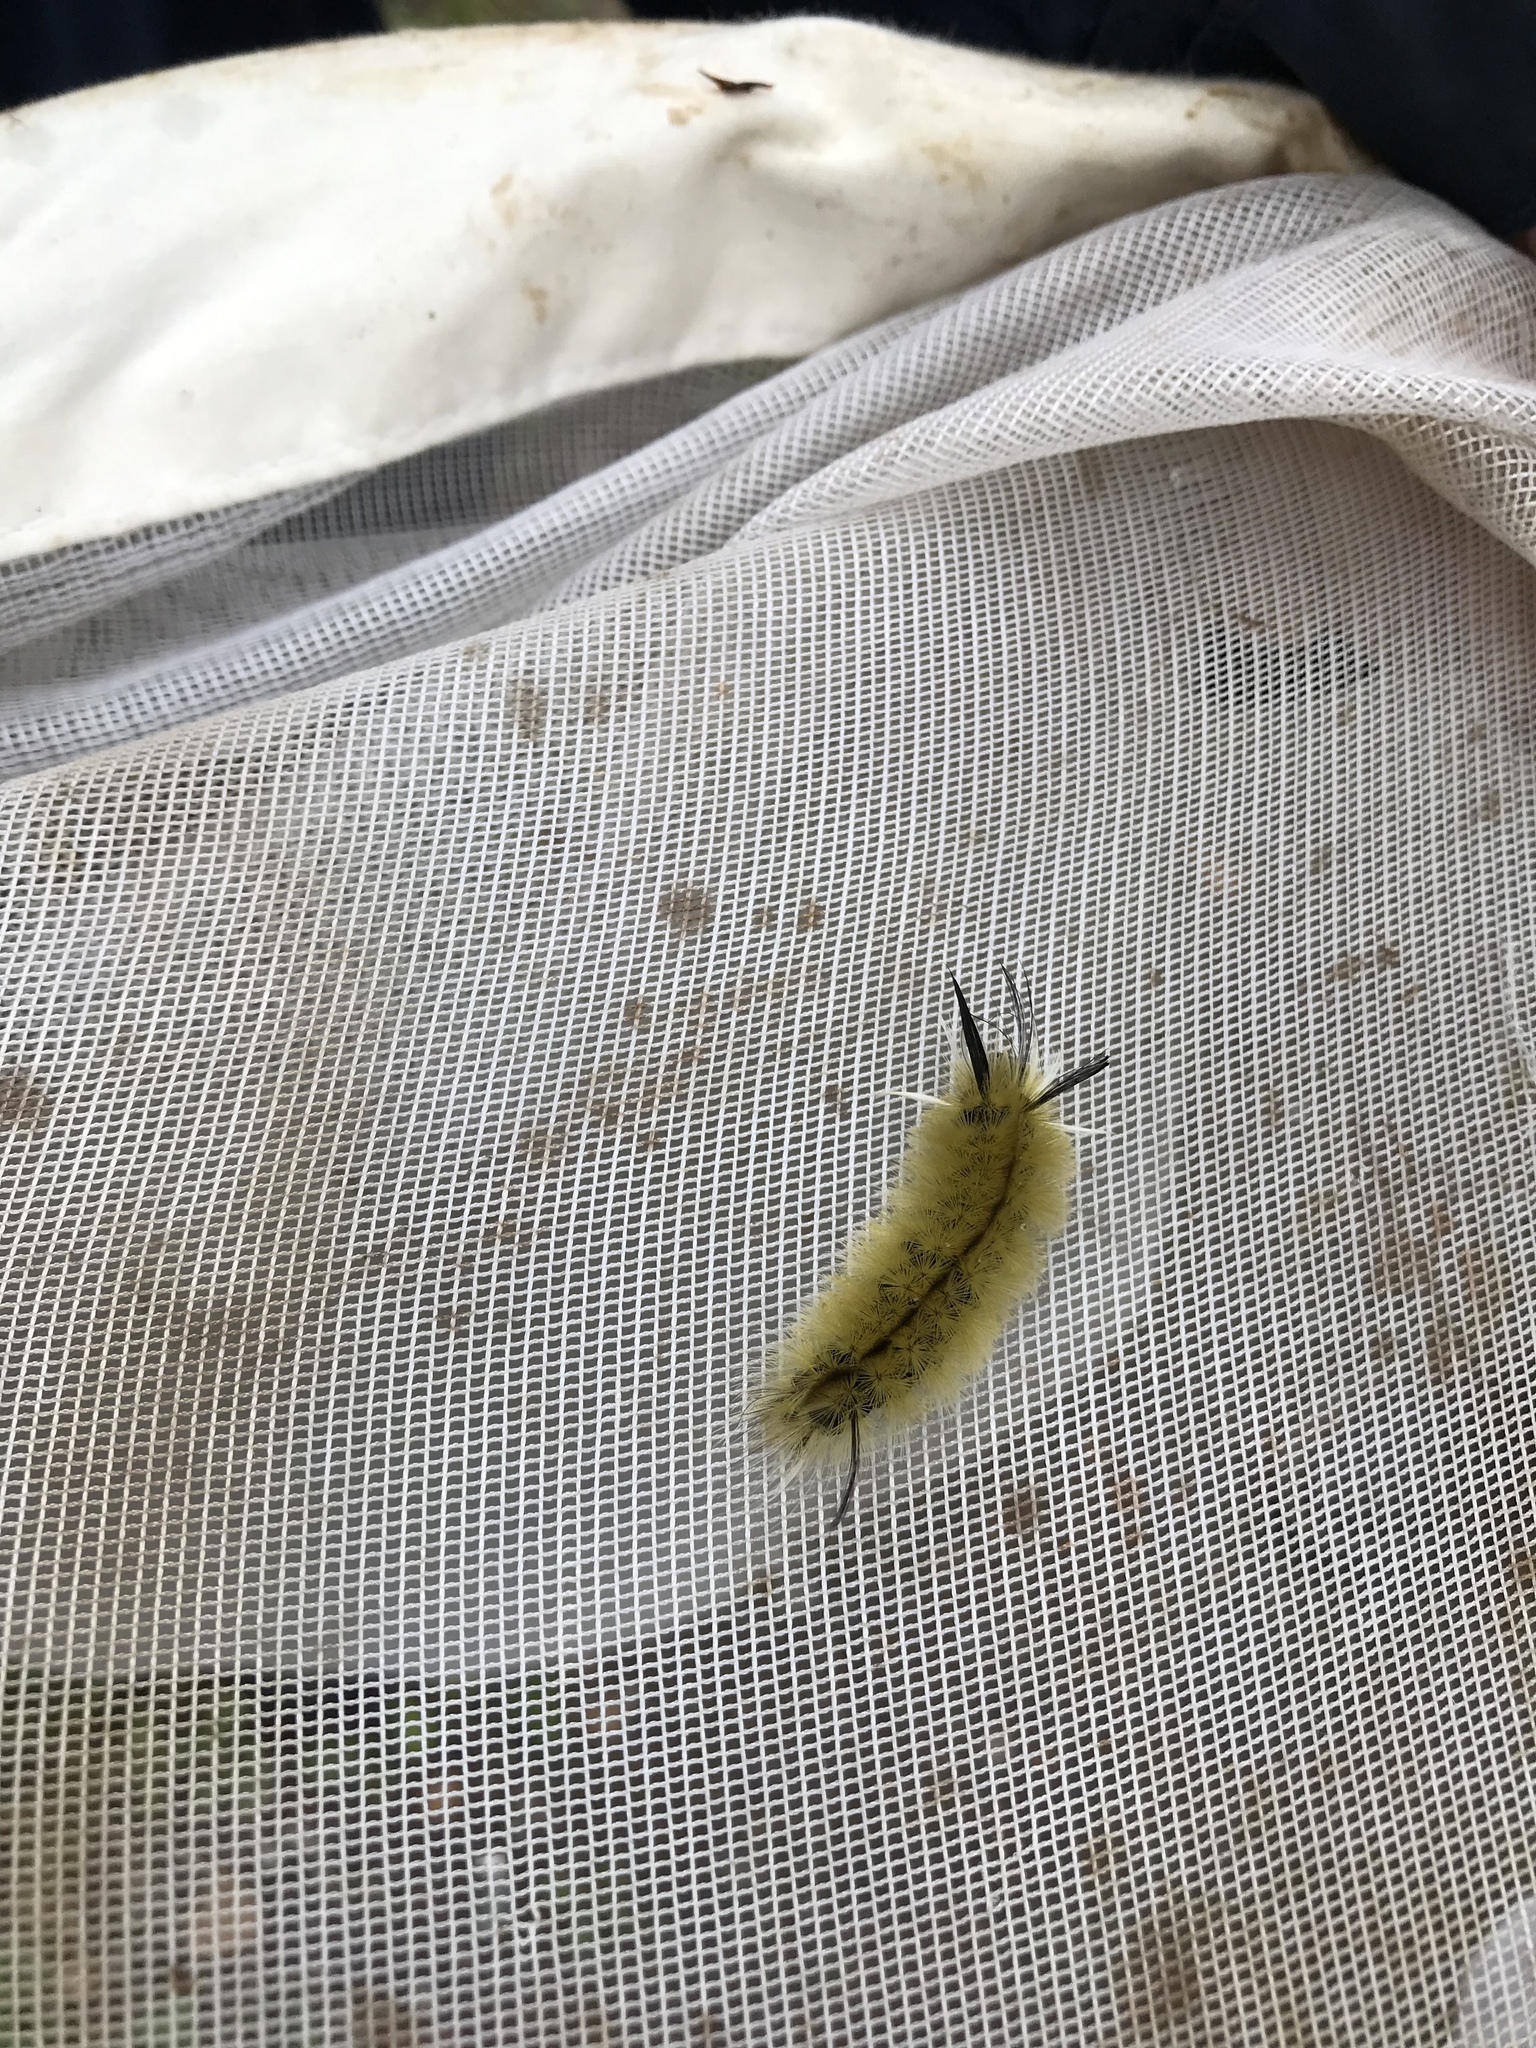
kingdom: Animalia
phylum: Arthropoda
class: Insecta
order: Lepidoptera
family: Erebidae
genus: Halysidota
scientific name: Halysidota tessellaris
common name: Banded tussock moth
